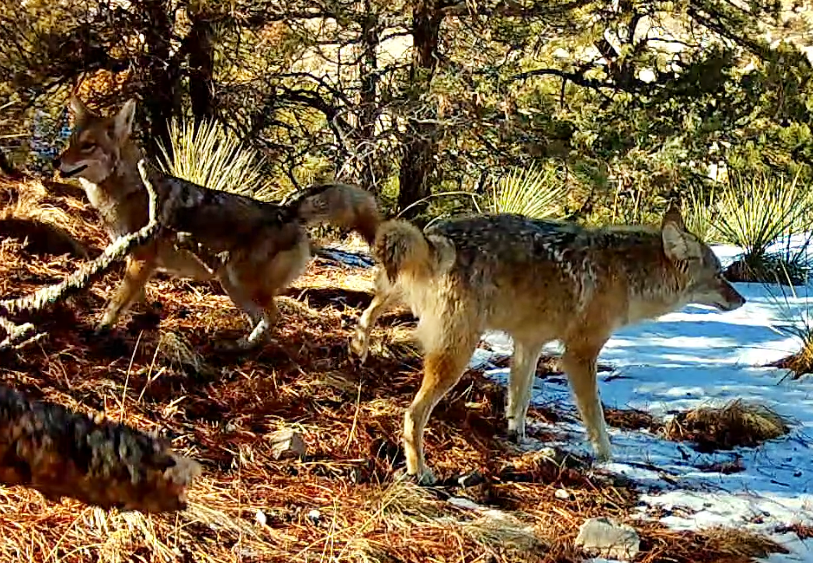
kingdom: Animalia
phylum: Chordata
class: Mammalia
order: Carnivora
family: Canidae
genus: Canis
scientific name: Canis latrans
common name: Coyote
